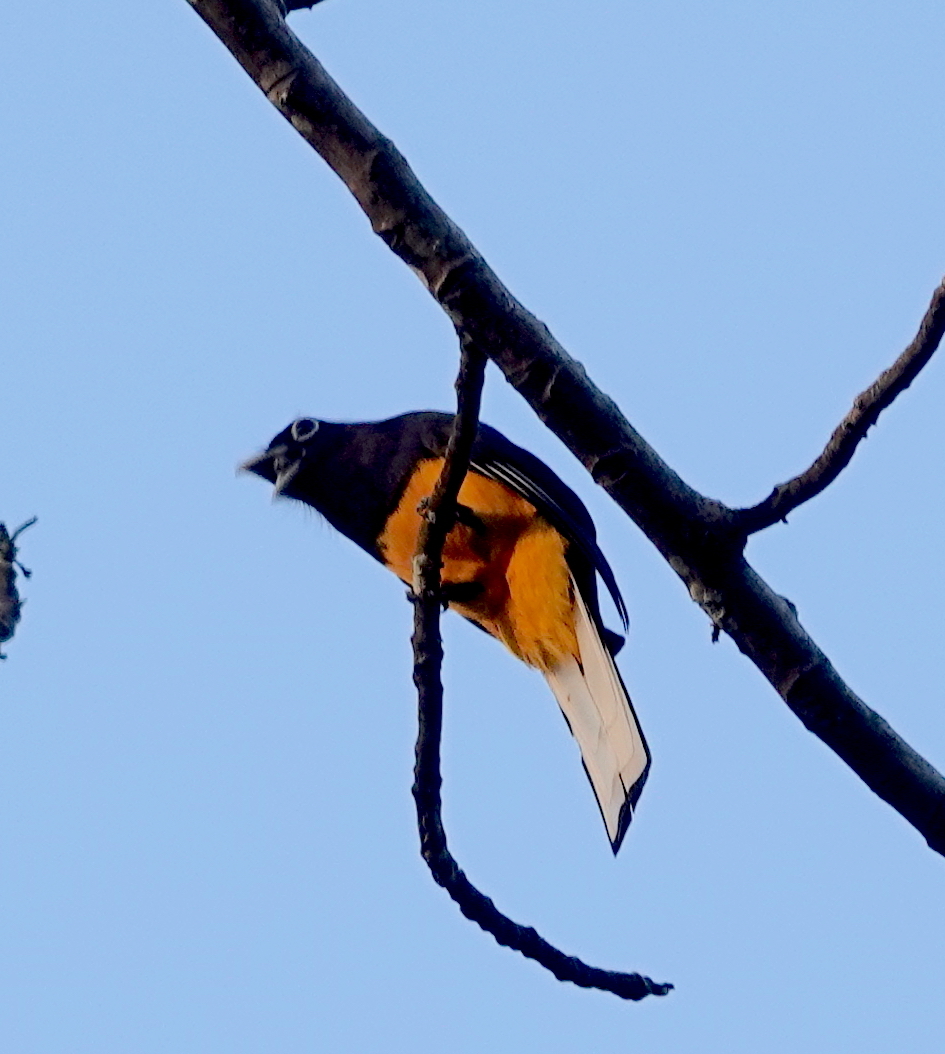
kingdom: Animalia
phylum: Chordata
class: Aves
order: Trogoniformes
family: Trogonidae
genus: Trogon
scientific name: Trogon chionurus
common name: White-tailed trogon
